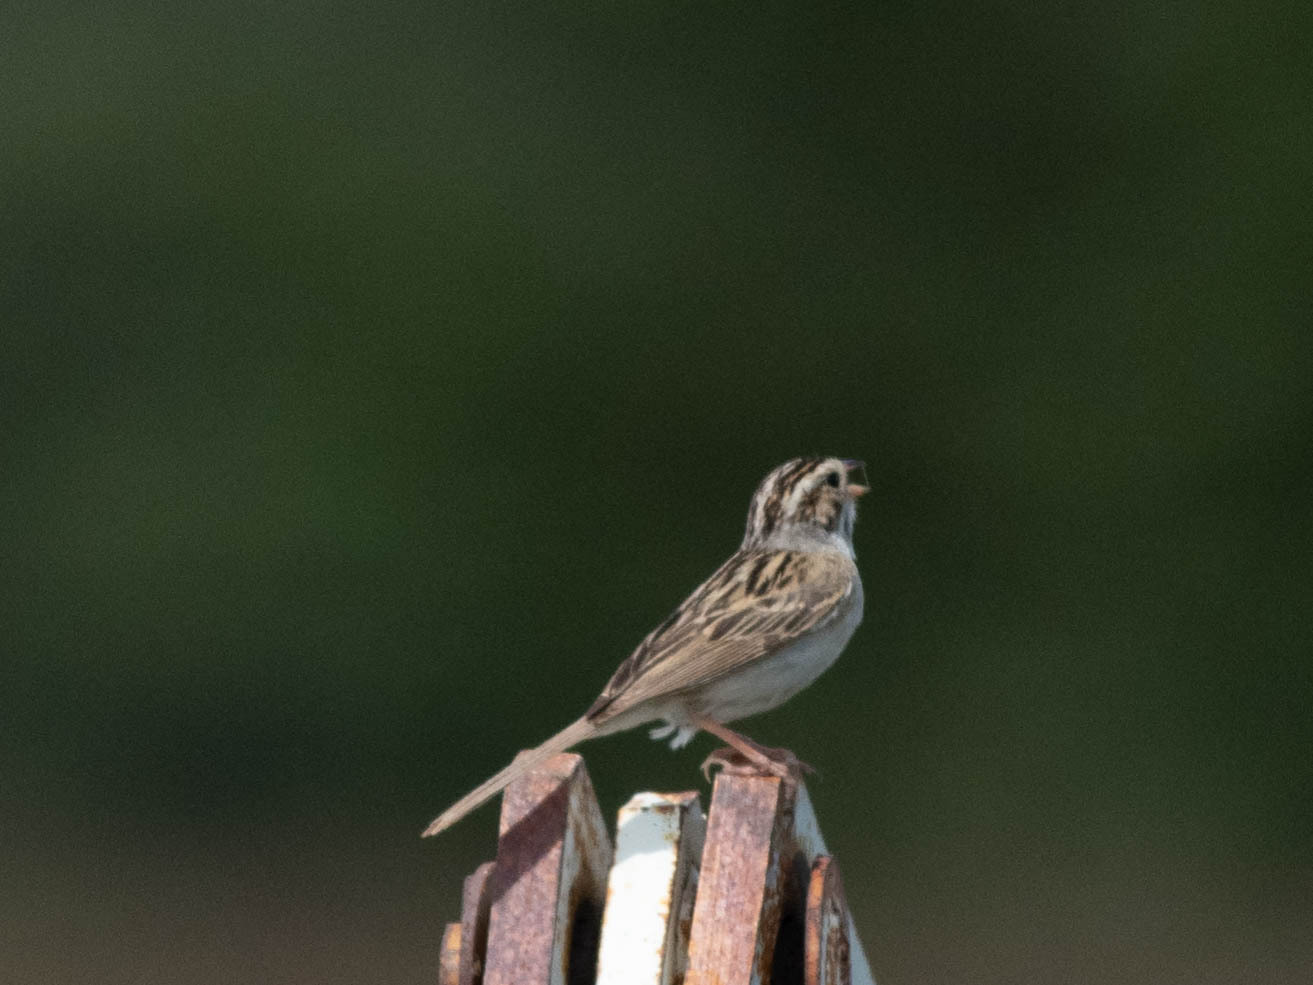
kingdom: Animalia
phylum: Chordata
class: Aves
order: Passeriformes
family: Passerellidae
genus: Spizella
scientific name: Spizella pallida
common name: Clay-colored sparrow
